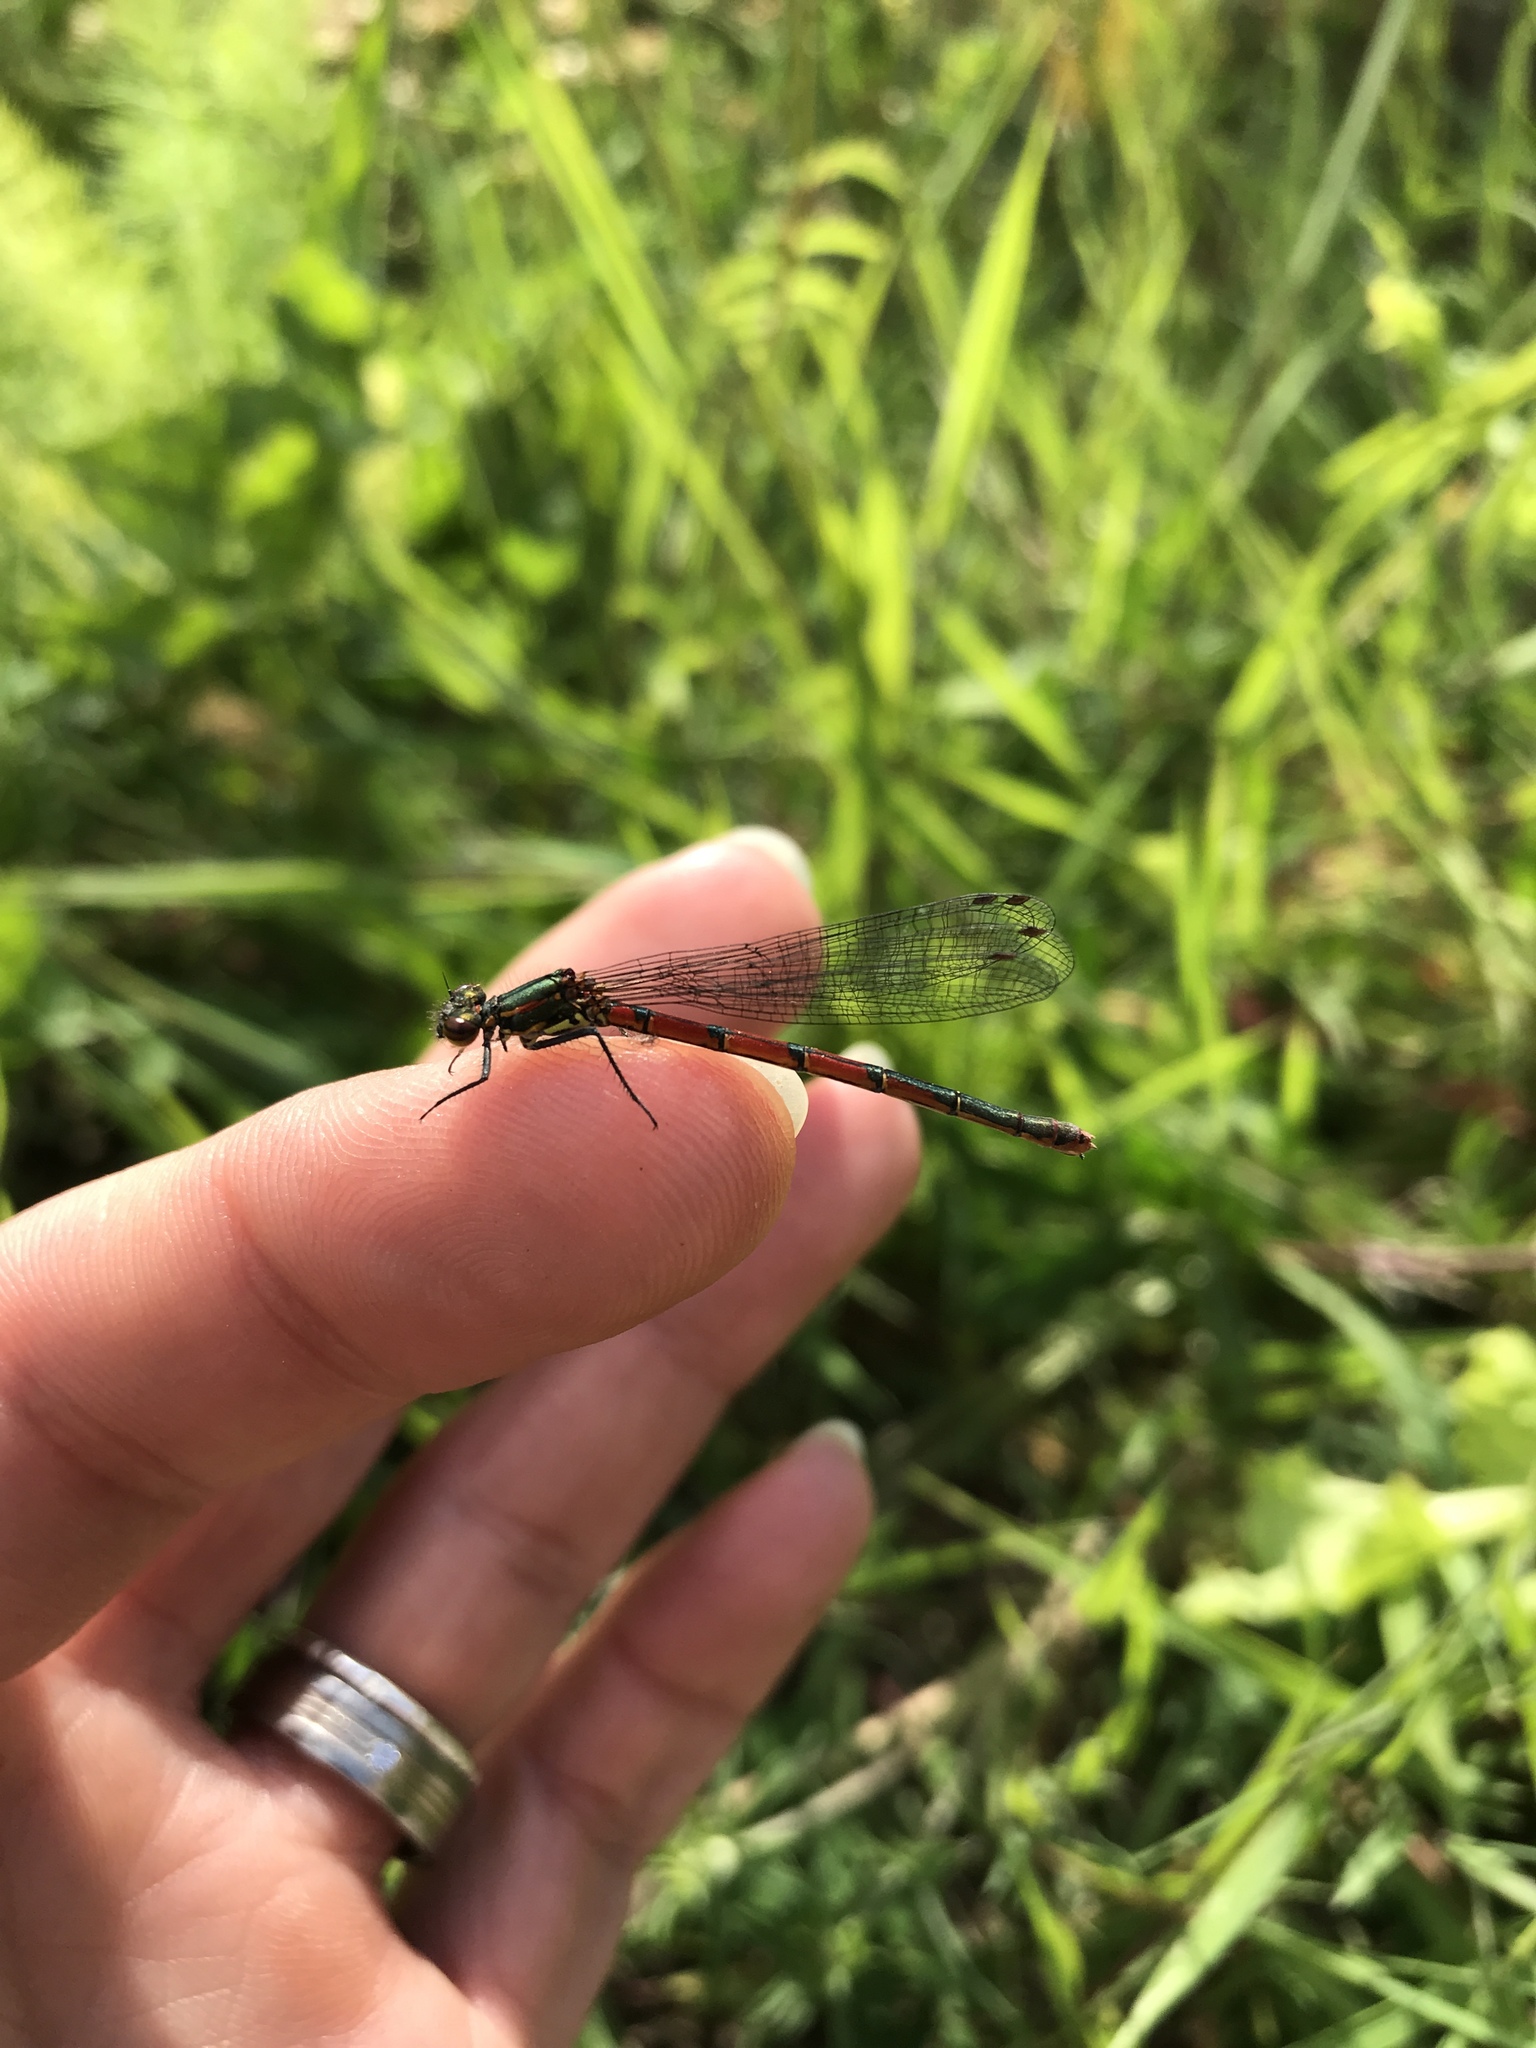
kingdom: Animalia
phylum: Arthropoda
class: Insecta
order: Odonata
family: Coenagrionidae
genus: Pyrrhosoma
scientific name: Pyrrhosoma nymphula
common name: Large red damsel
